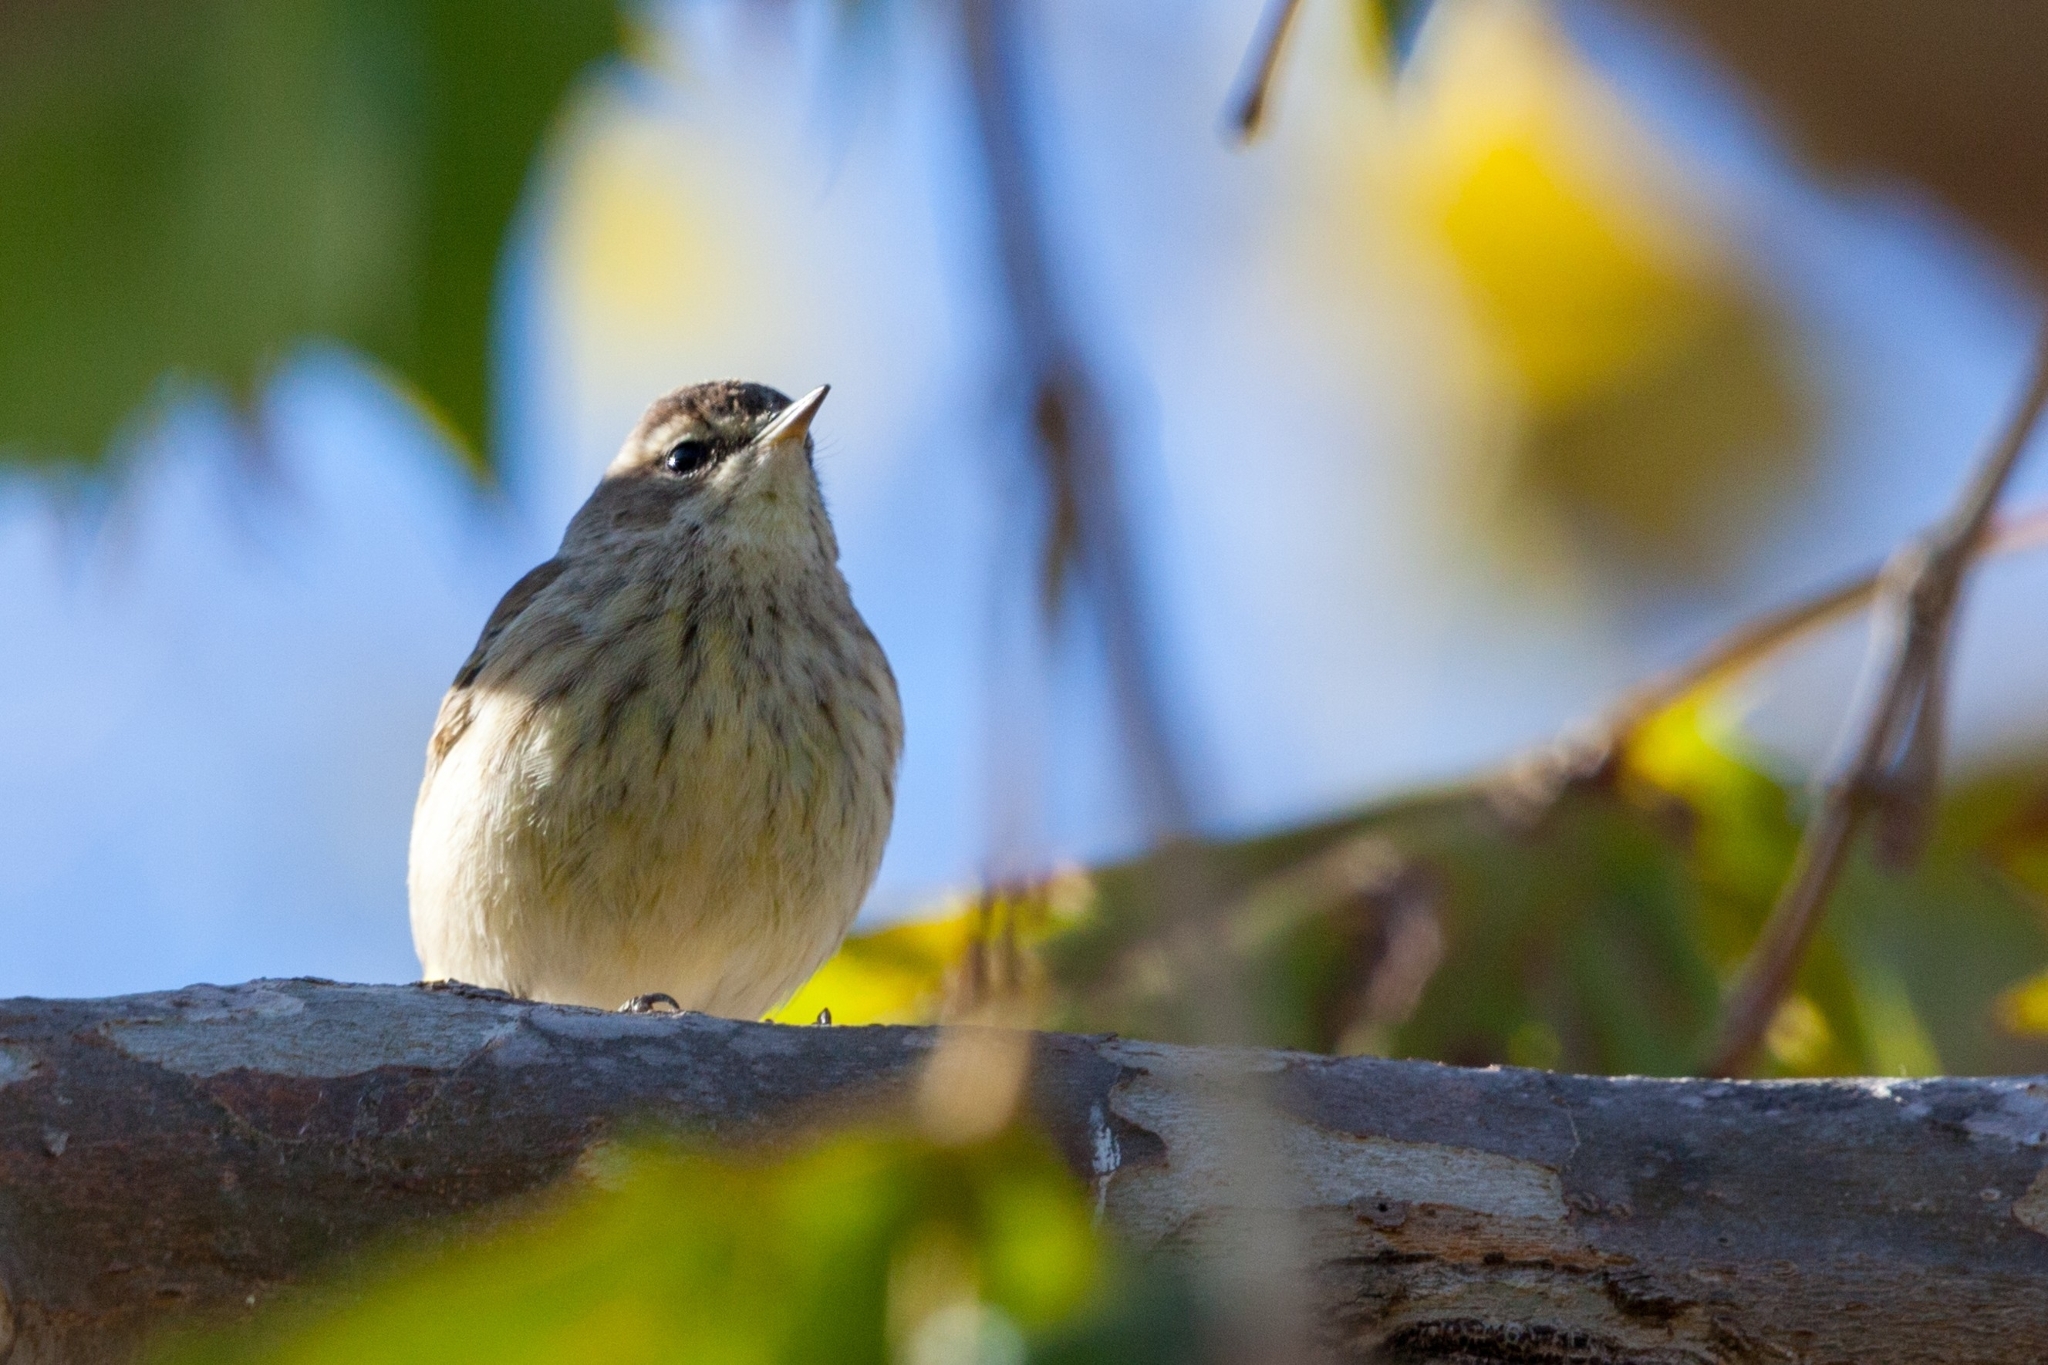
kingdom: Animalia
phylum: Chordata
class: Aves
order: Passeriformes
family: Parulidae
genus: Setophaga
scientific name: Setophaga palmarum
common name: Palm warbler
